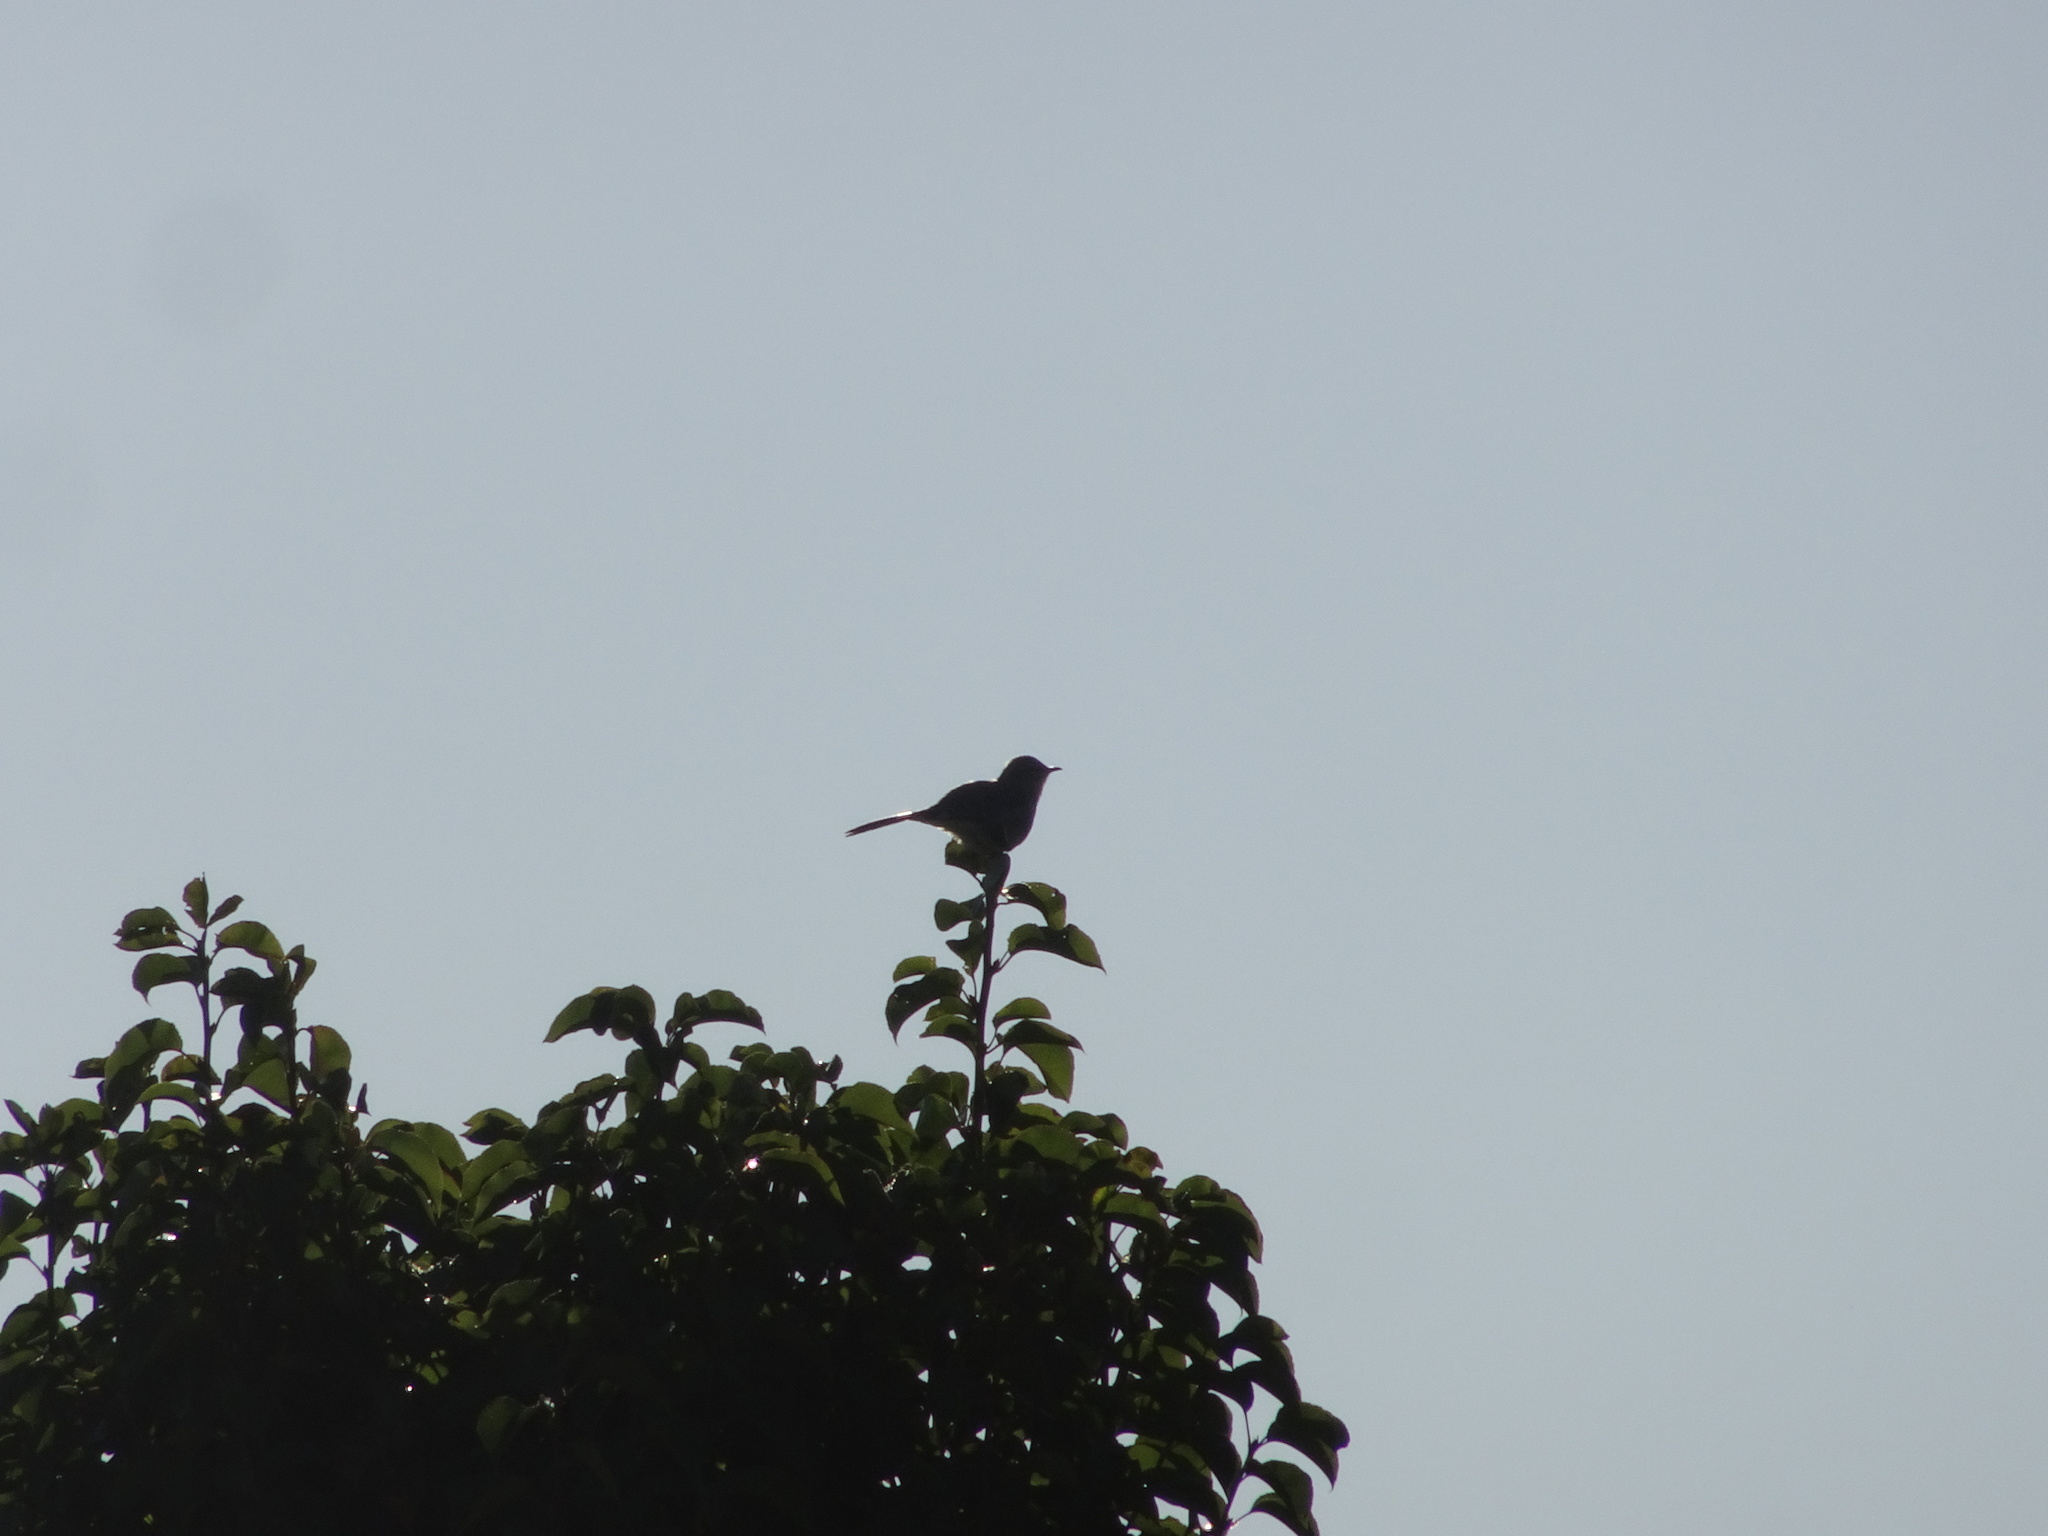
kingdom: Animalia
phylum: Chordata
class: Aves
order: Passeriformes
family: Mimidae
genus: Mimus
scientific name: Mimus polyglottos
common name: Northern mockingbird
